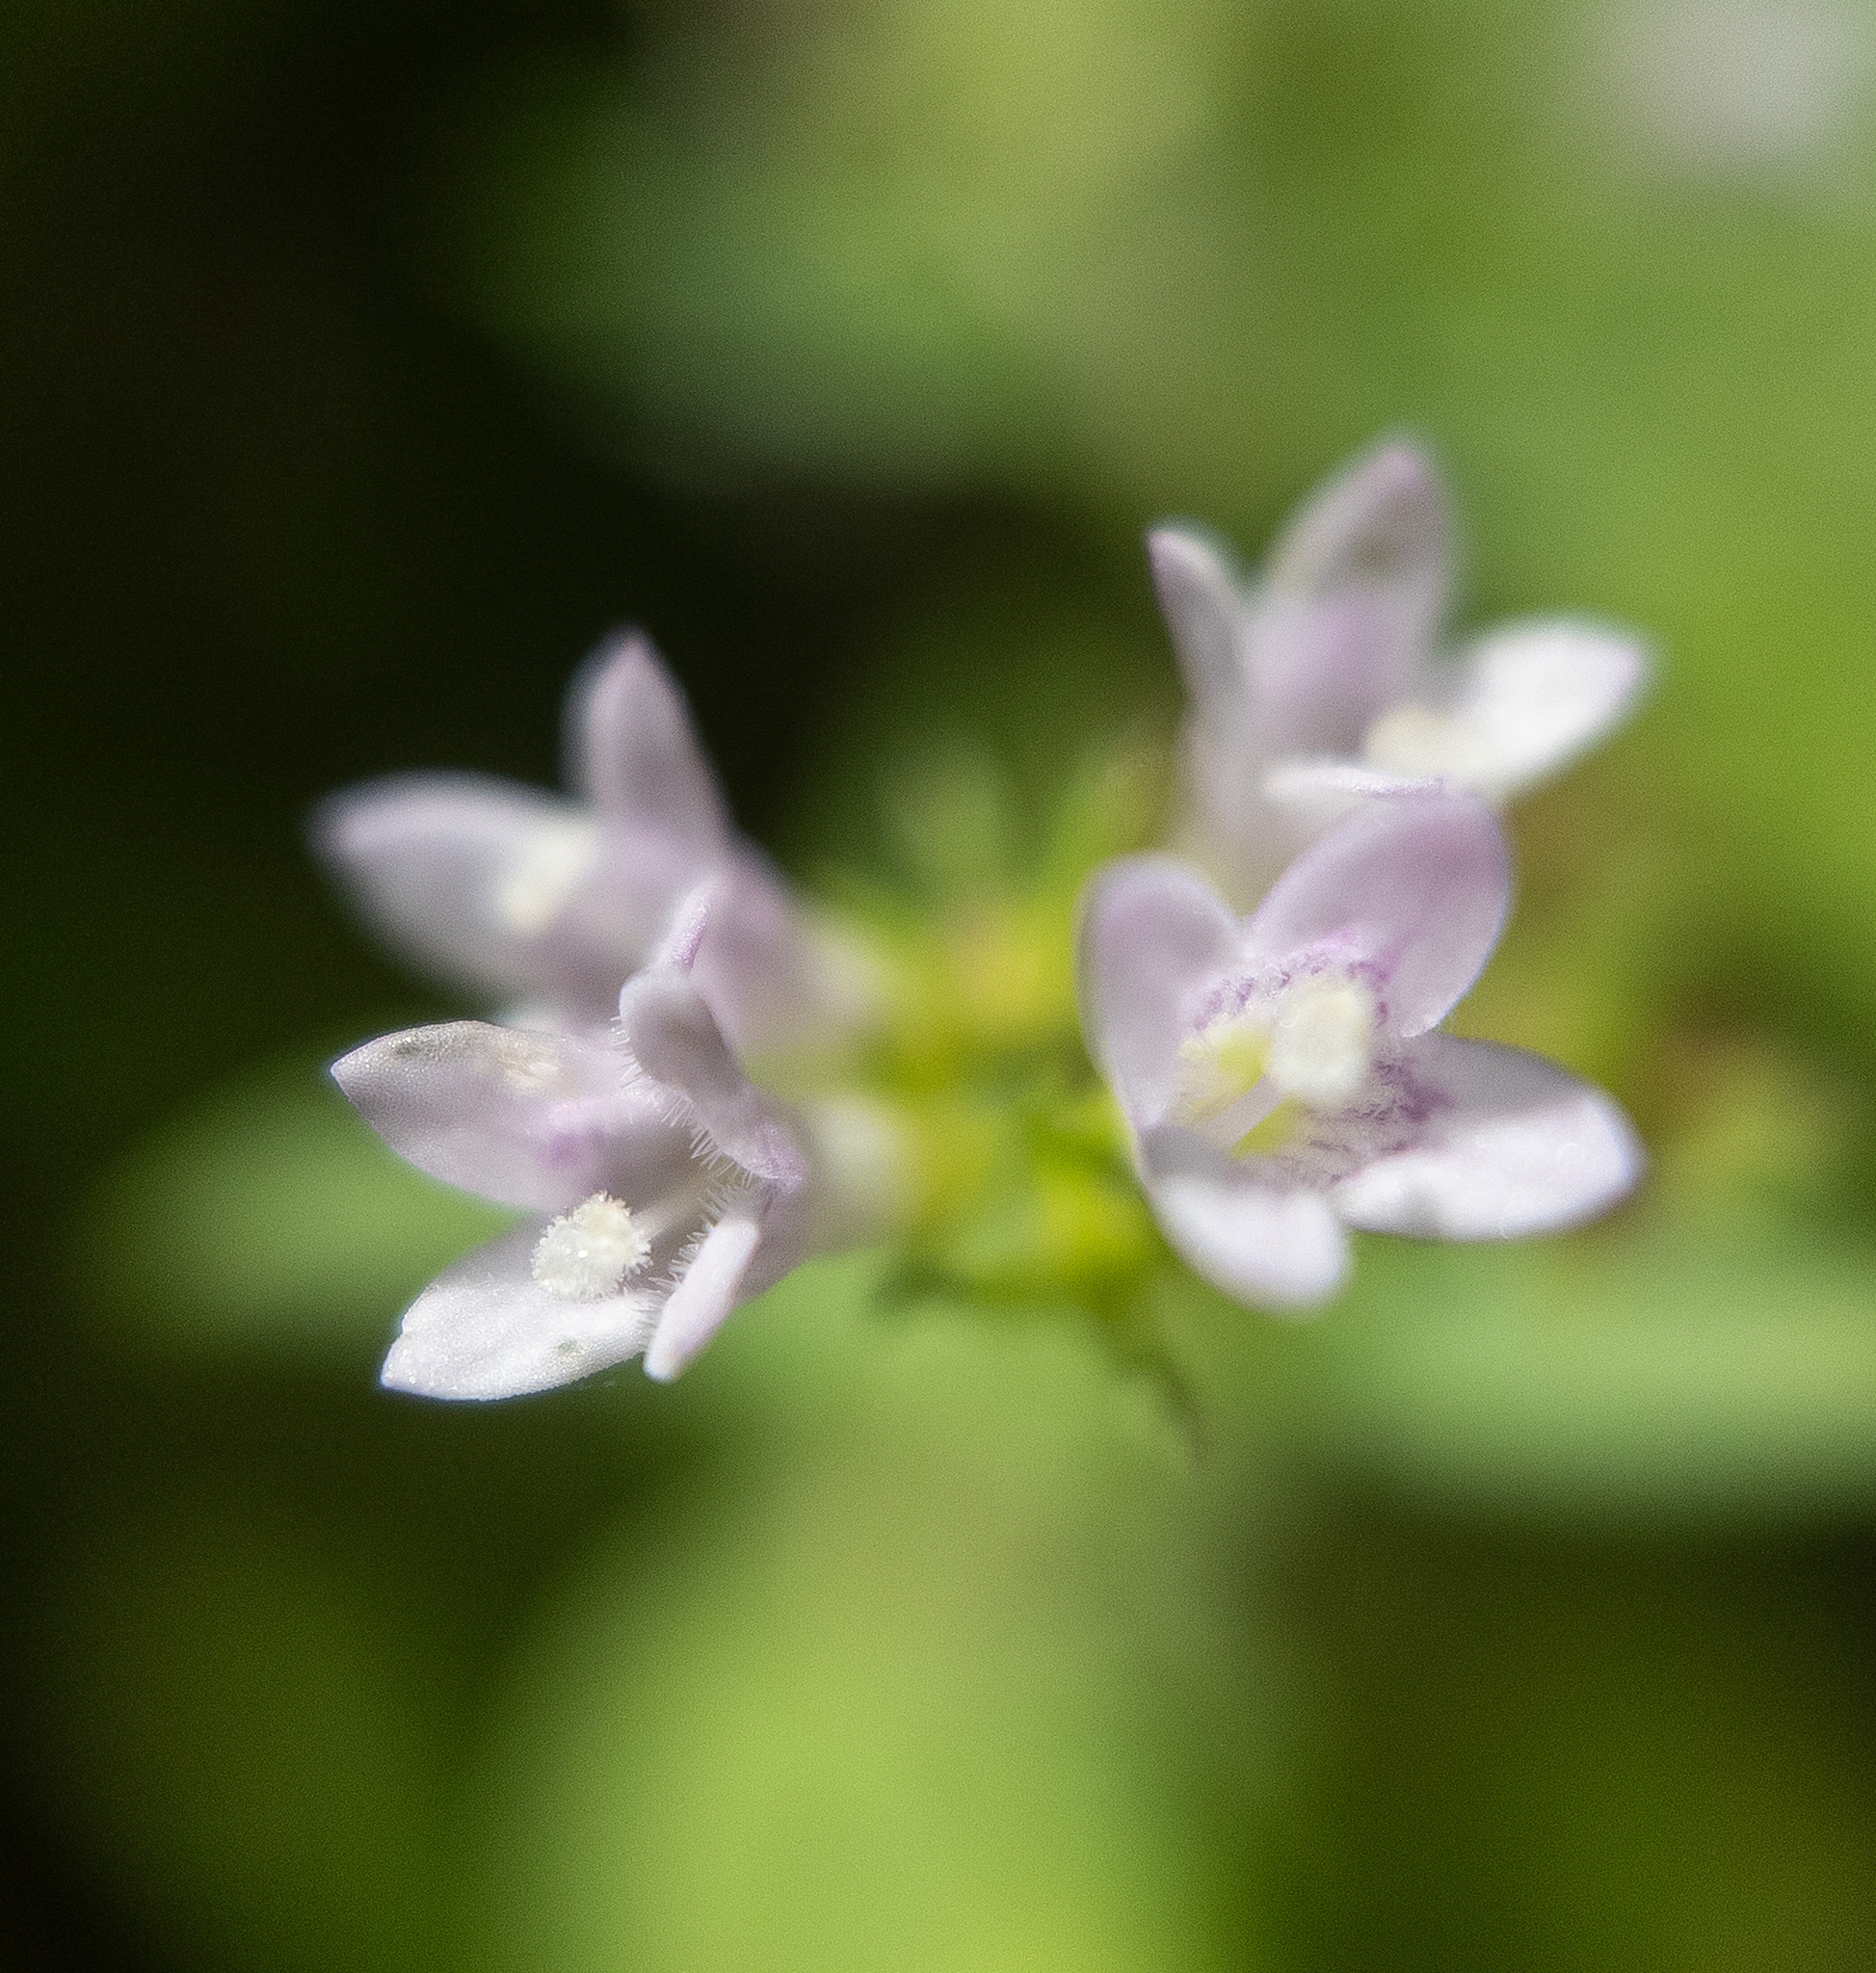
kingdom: Plantae
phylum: Tracheophyta
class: Magnoliopsida
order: Gentianales
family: Rubiaceae
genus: Houstonia
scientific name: Houstonia purpurea
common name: Summer bluet
